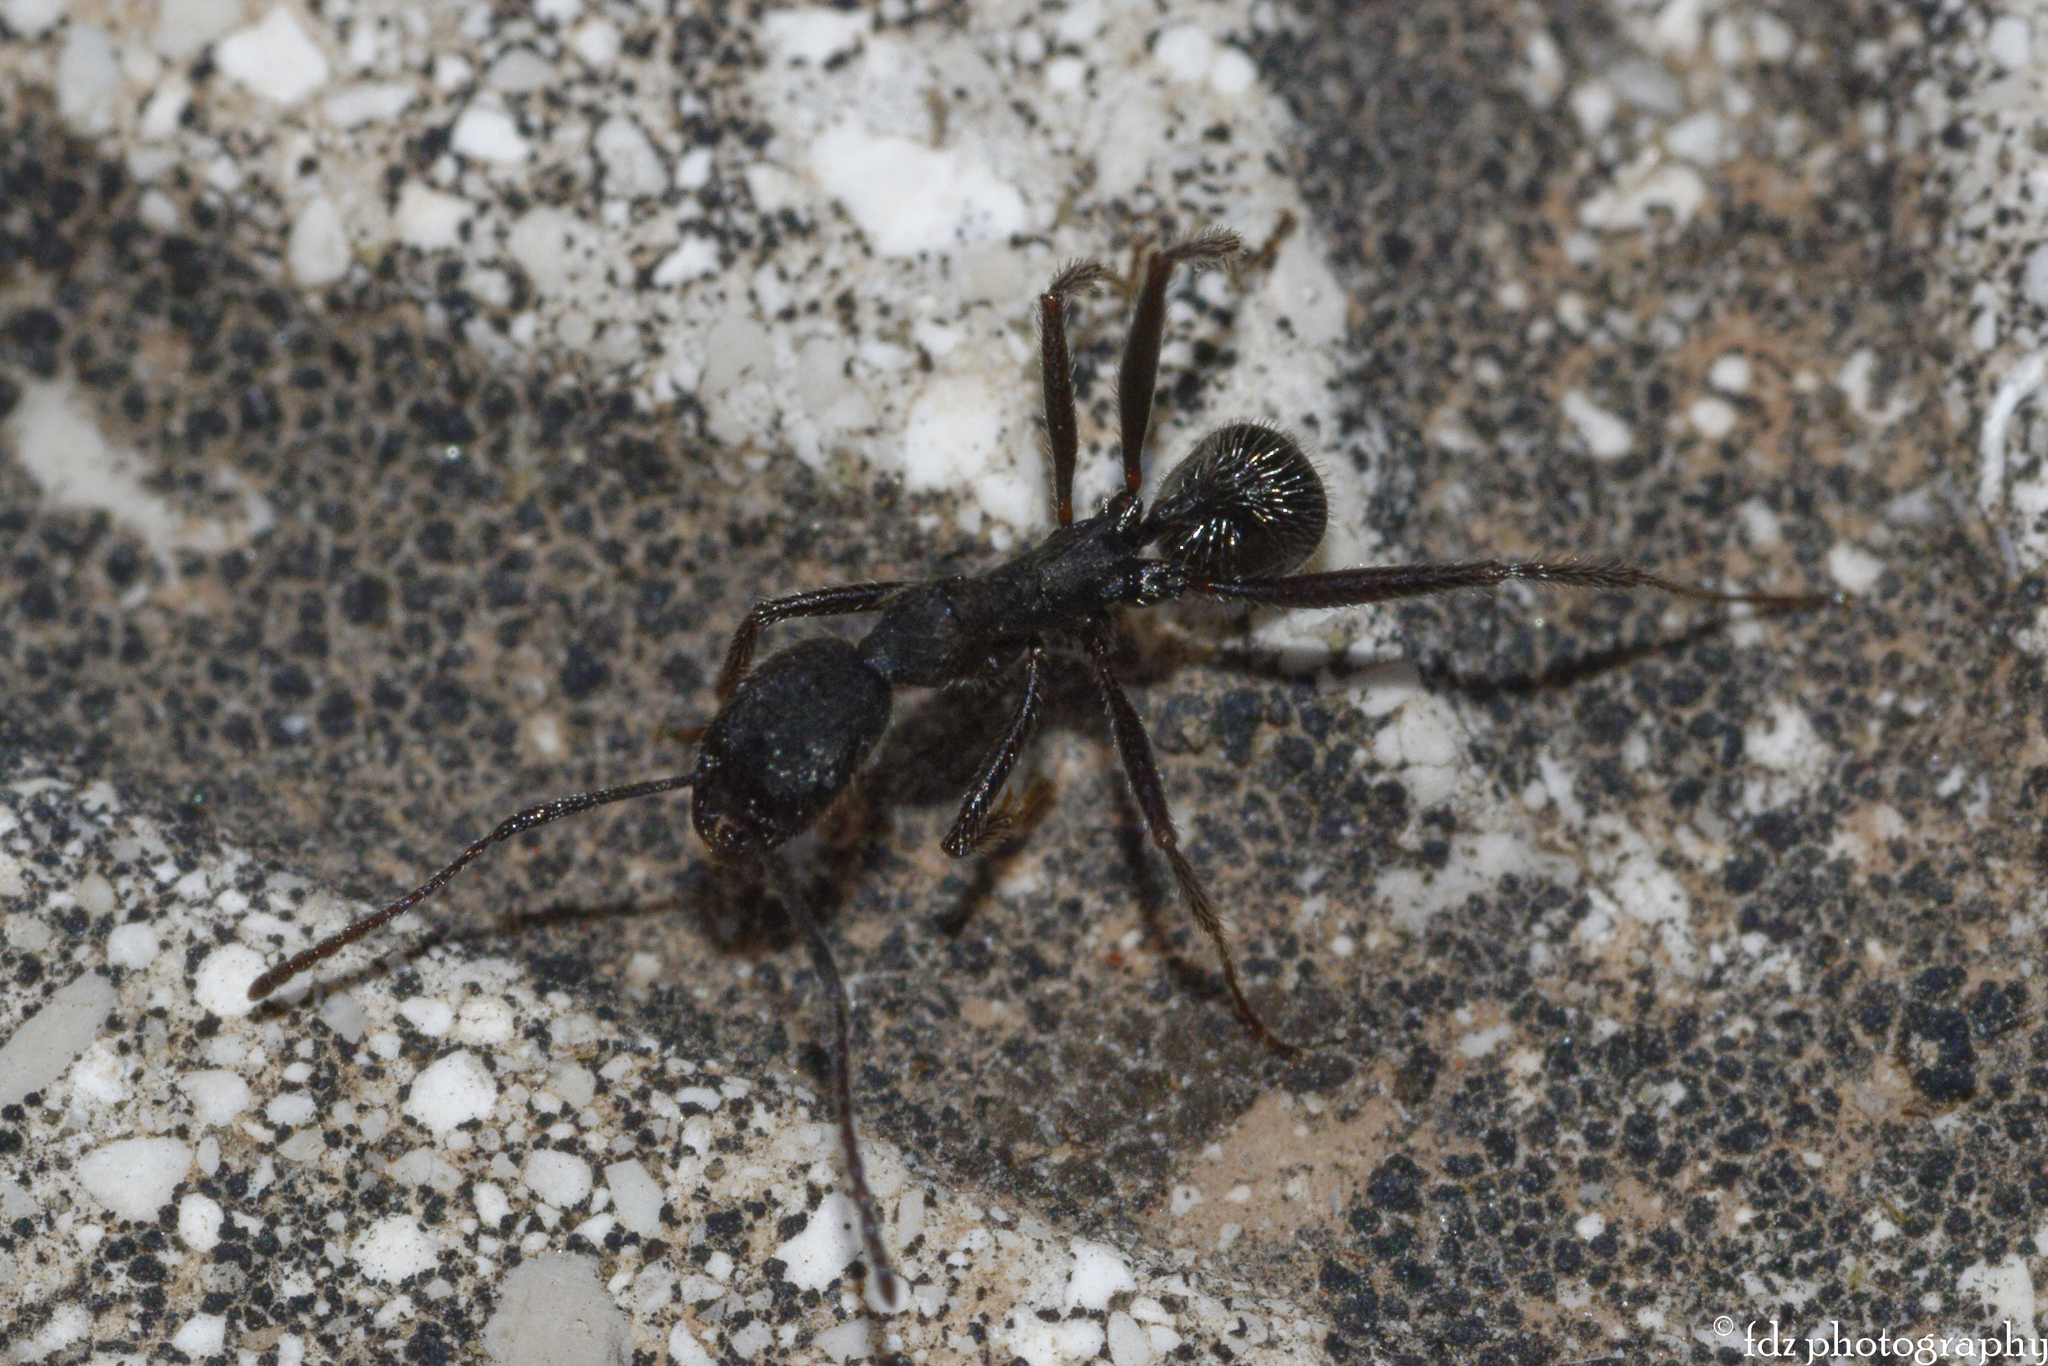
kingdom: Animalia
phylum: Arthropoda
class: Insecta
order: Hymenoptera
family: Formicidae
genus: Aphaenogaster
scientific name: Aphaenogaster senilis
